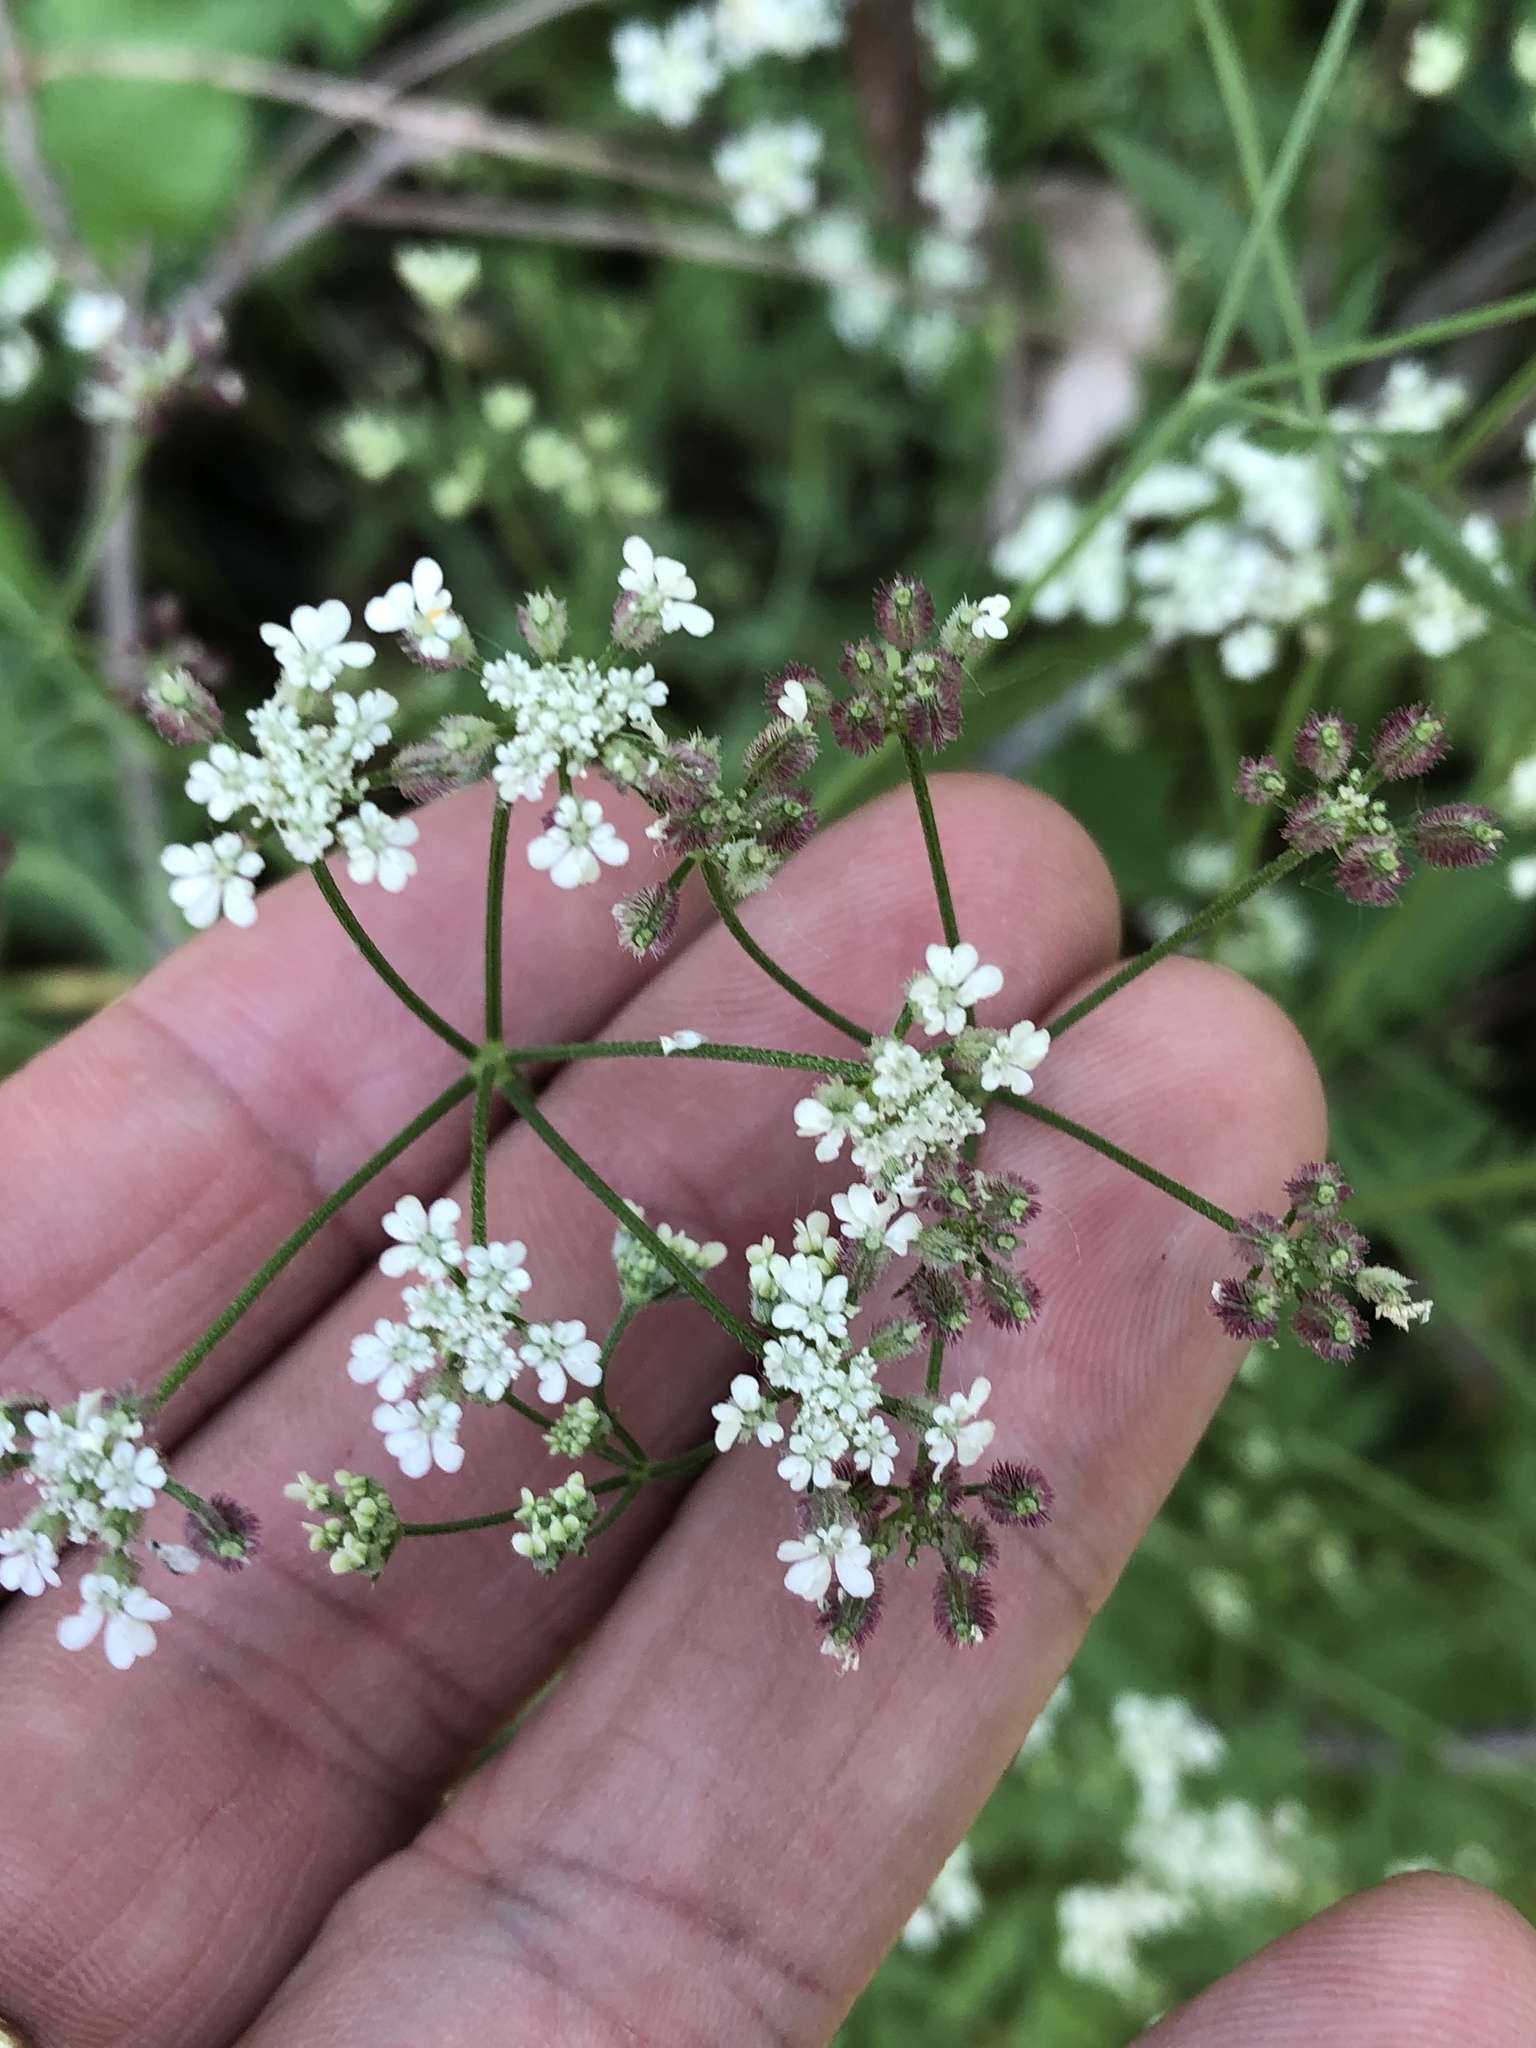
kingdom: Plantae
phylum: Tracheophyta
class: Magnoliopsida
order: Apiales
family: Apiaceae
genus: Torilis
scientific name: Torilis arvensis
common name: Spreading hedge-parsley
